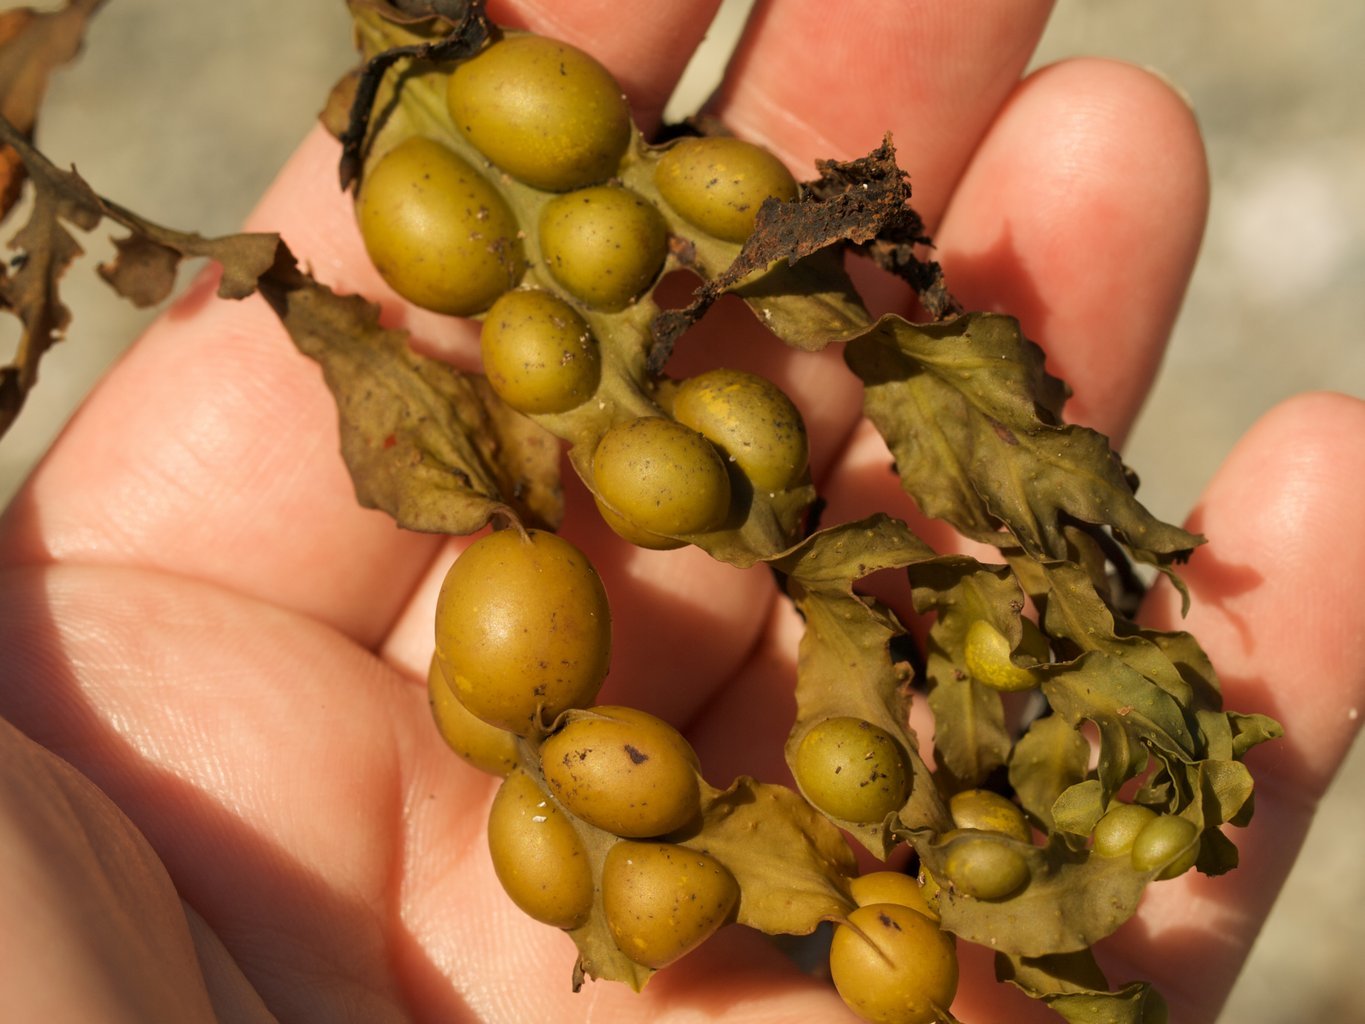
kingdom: Chromista
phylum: Ochrophyta
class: Phaeophyceae
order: Fucales
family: Fucaceae
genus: Fucus
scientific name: Fucus vesiculosus
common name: Bladder wrack
